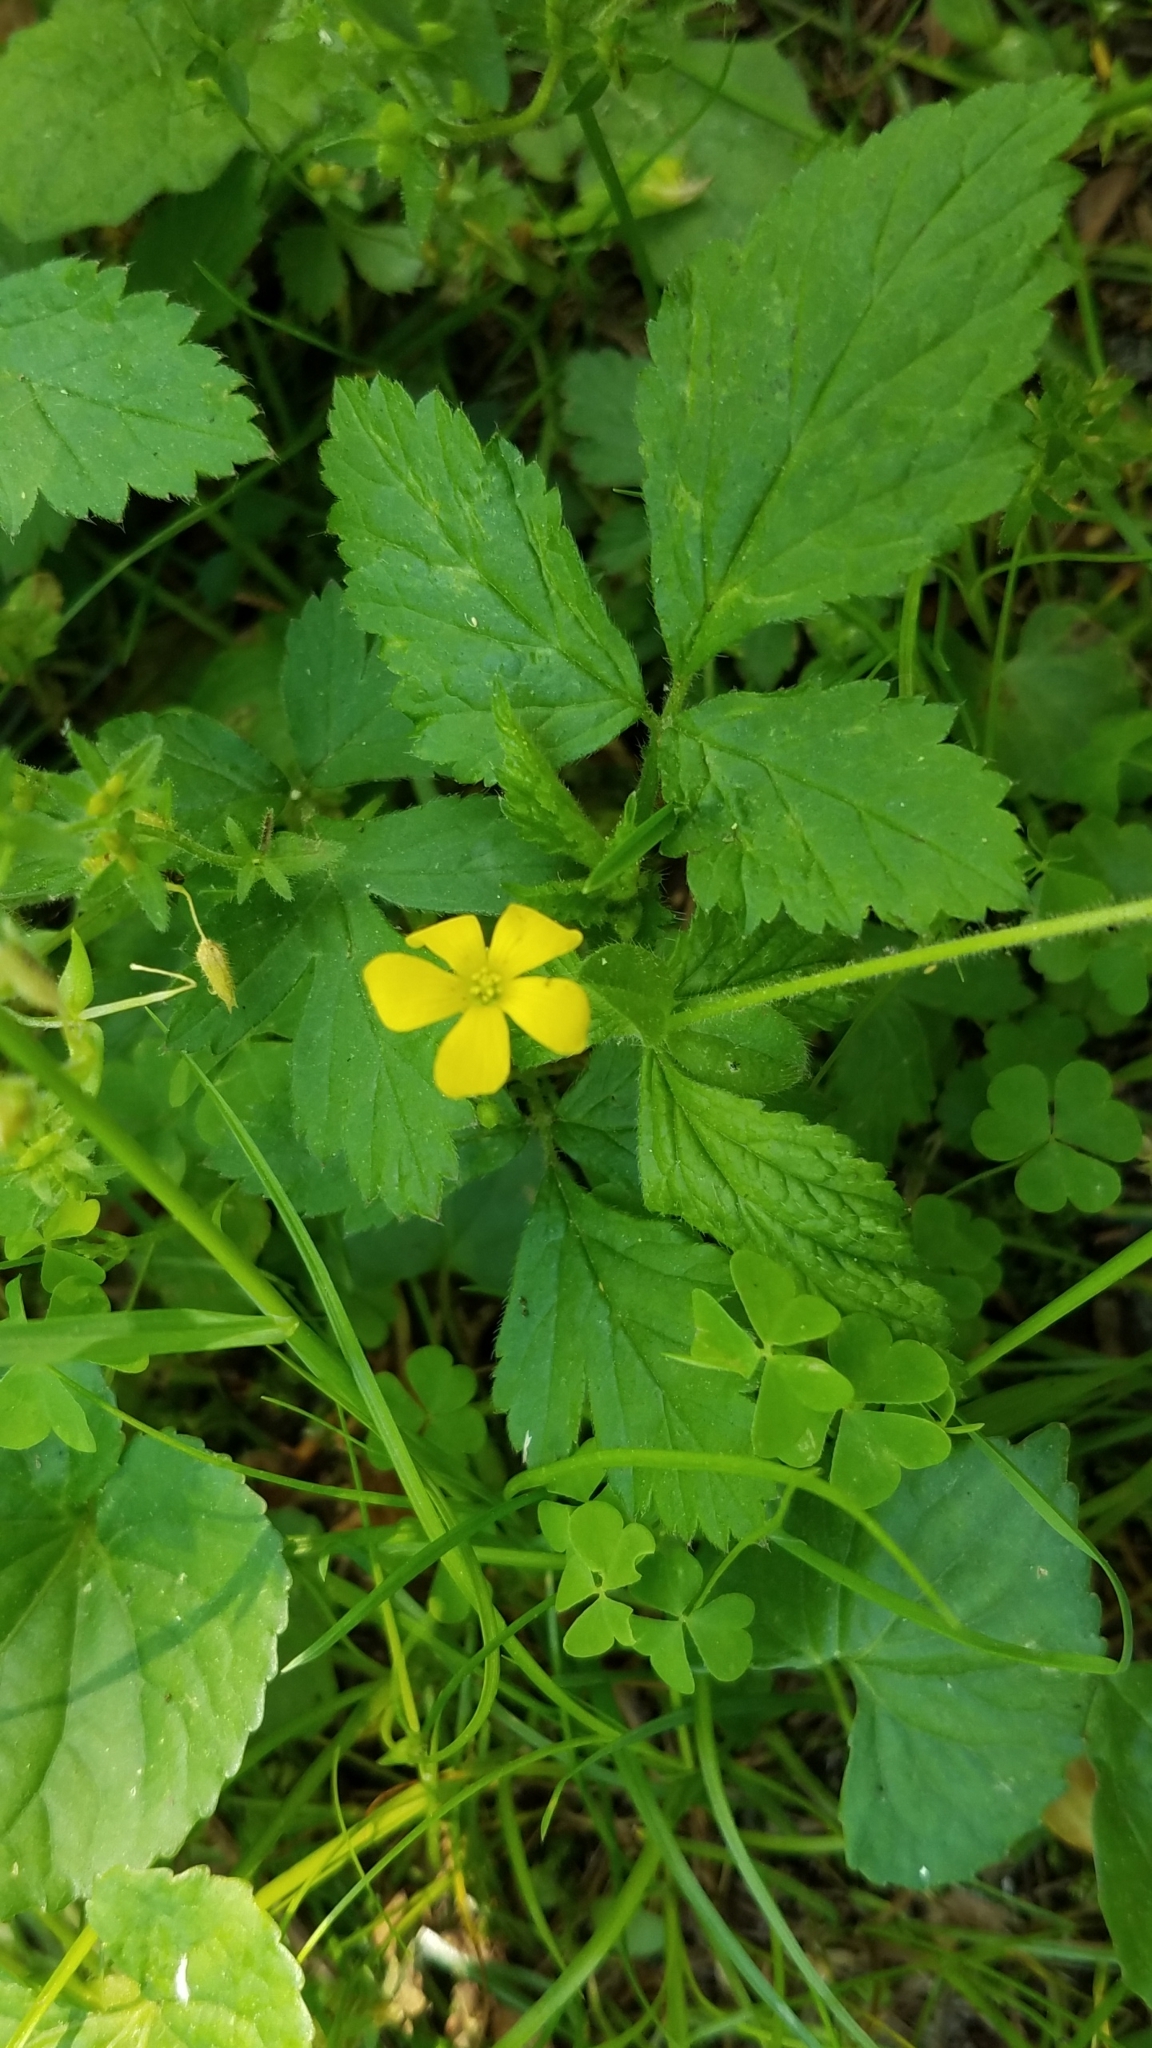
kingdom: Plantae
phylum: Tracheophyta
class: Magnoliopsida
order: Rosales
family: Rosaceae
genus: Potentilla
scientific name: Potentilla indica
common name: Yellow-flowered strawberry
